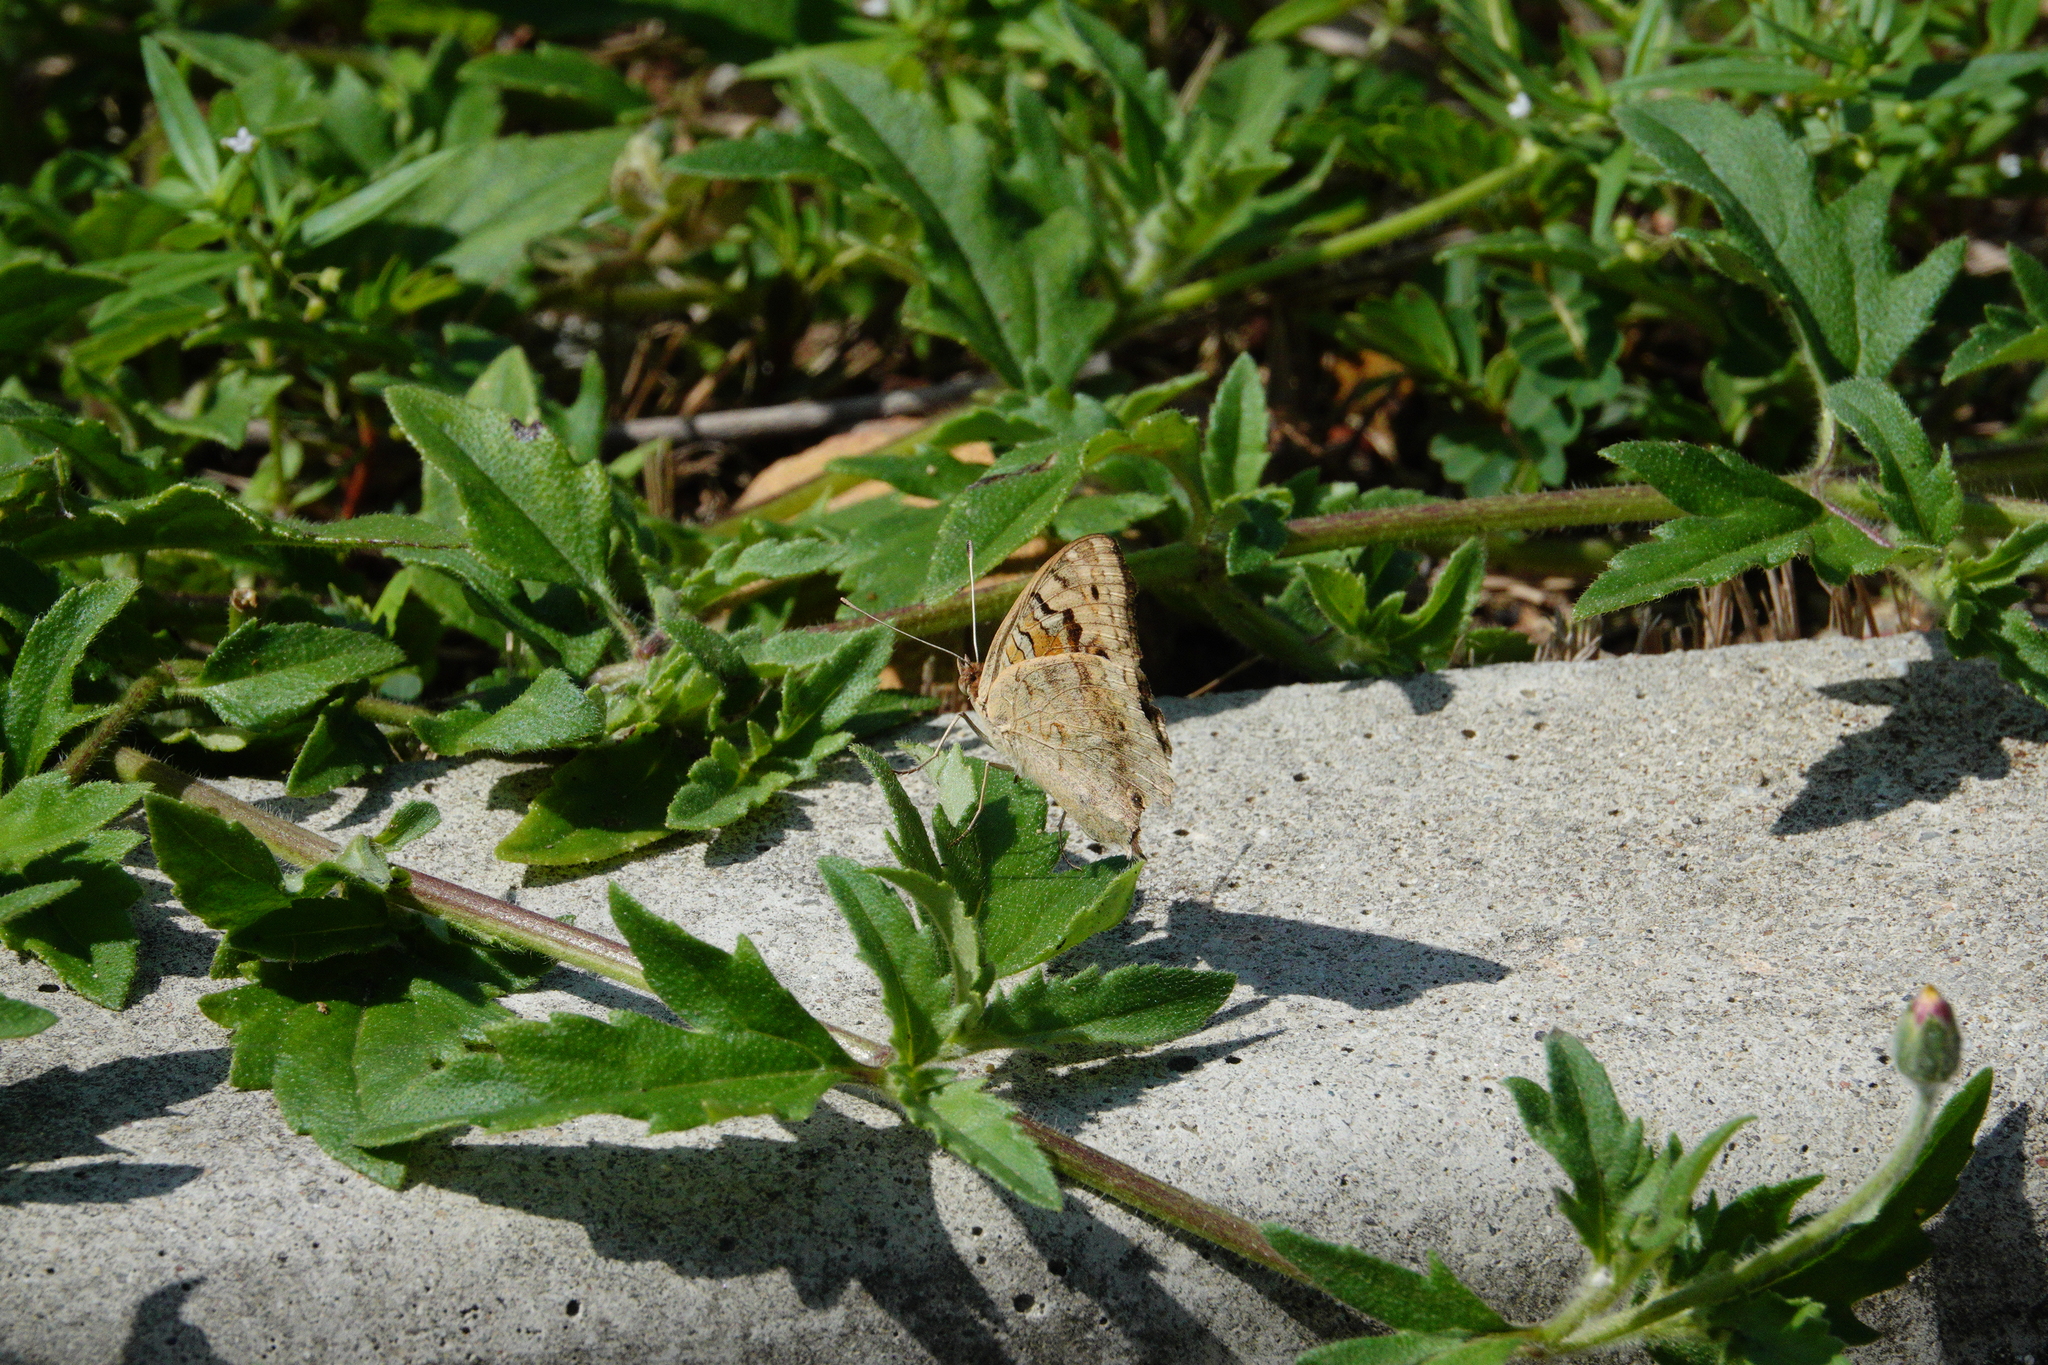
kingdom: Animalia
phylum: Arthropoda
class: Insecta
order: Lepidoptera
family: Nymphalidae
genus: Junonia
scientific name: Junonia orithya
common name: Blue pansy
